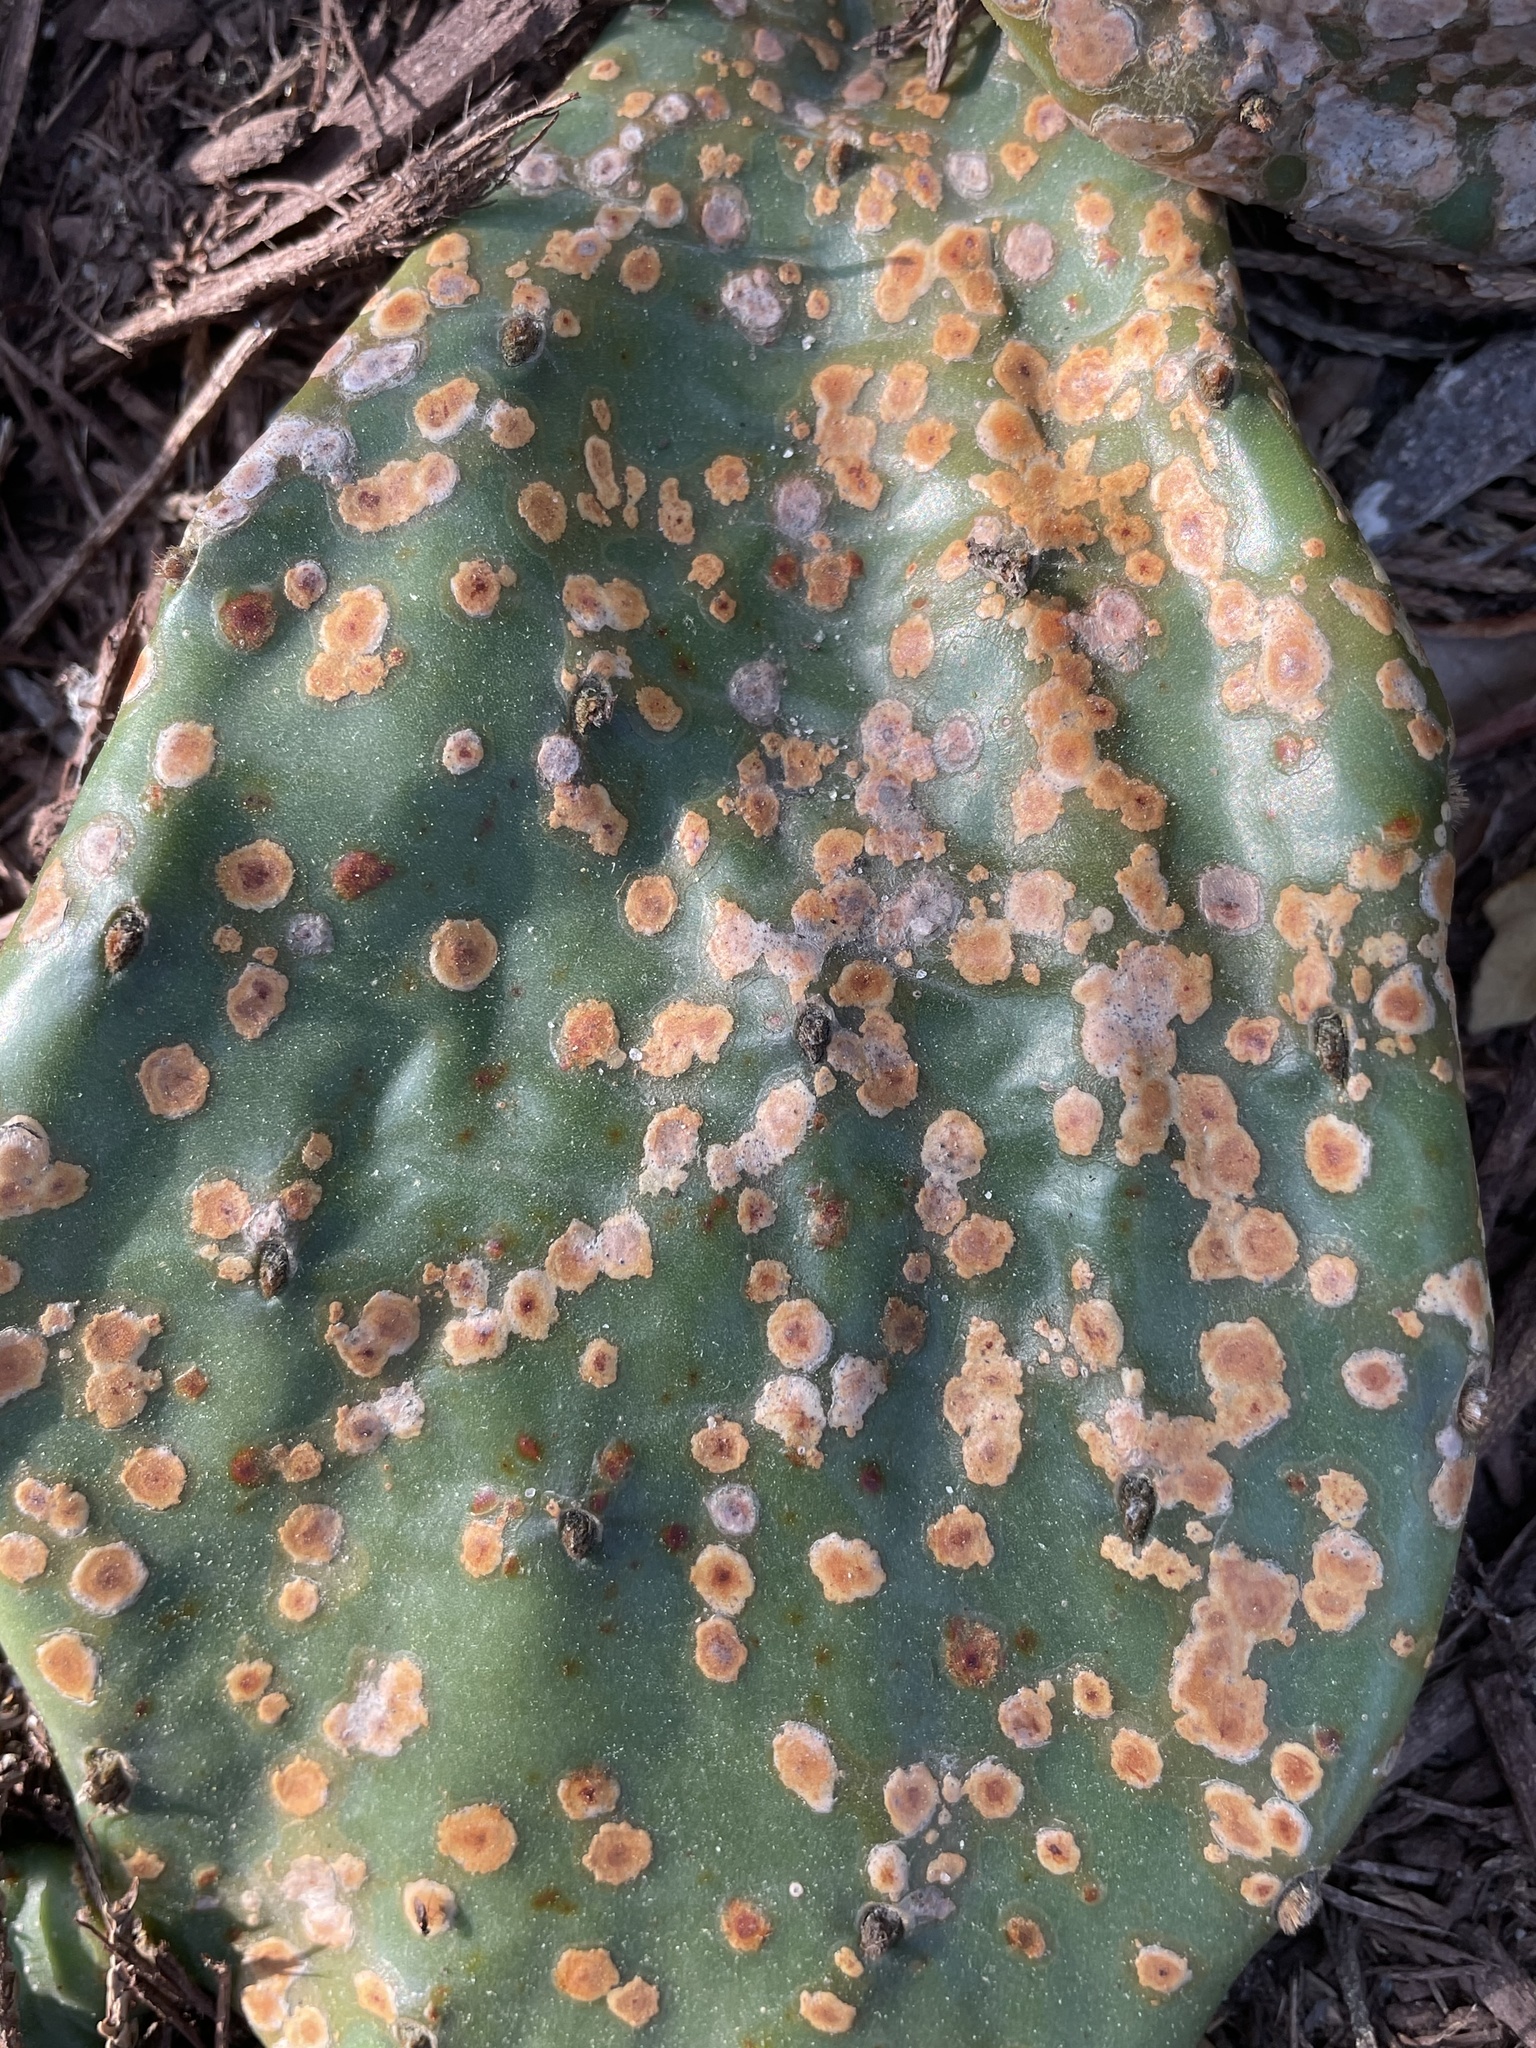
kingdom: Fungi
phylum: Ascomycota
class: Dothideomycetes
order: Botryosphaeriales
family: Phyllostictaceae
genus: Phyllosticta
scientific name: Phyllosticta concava
